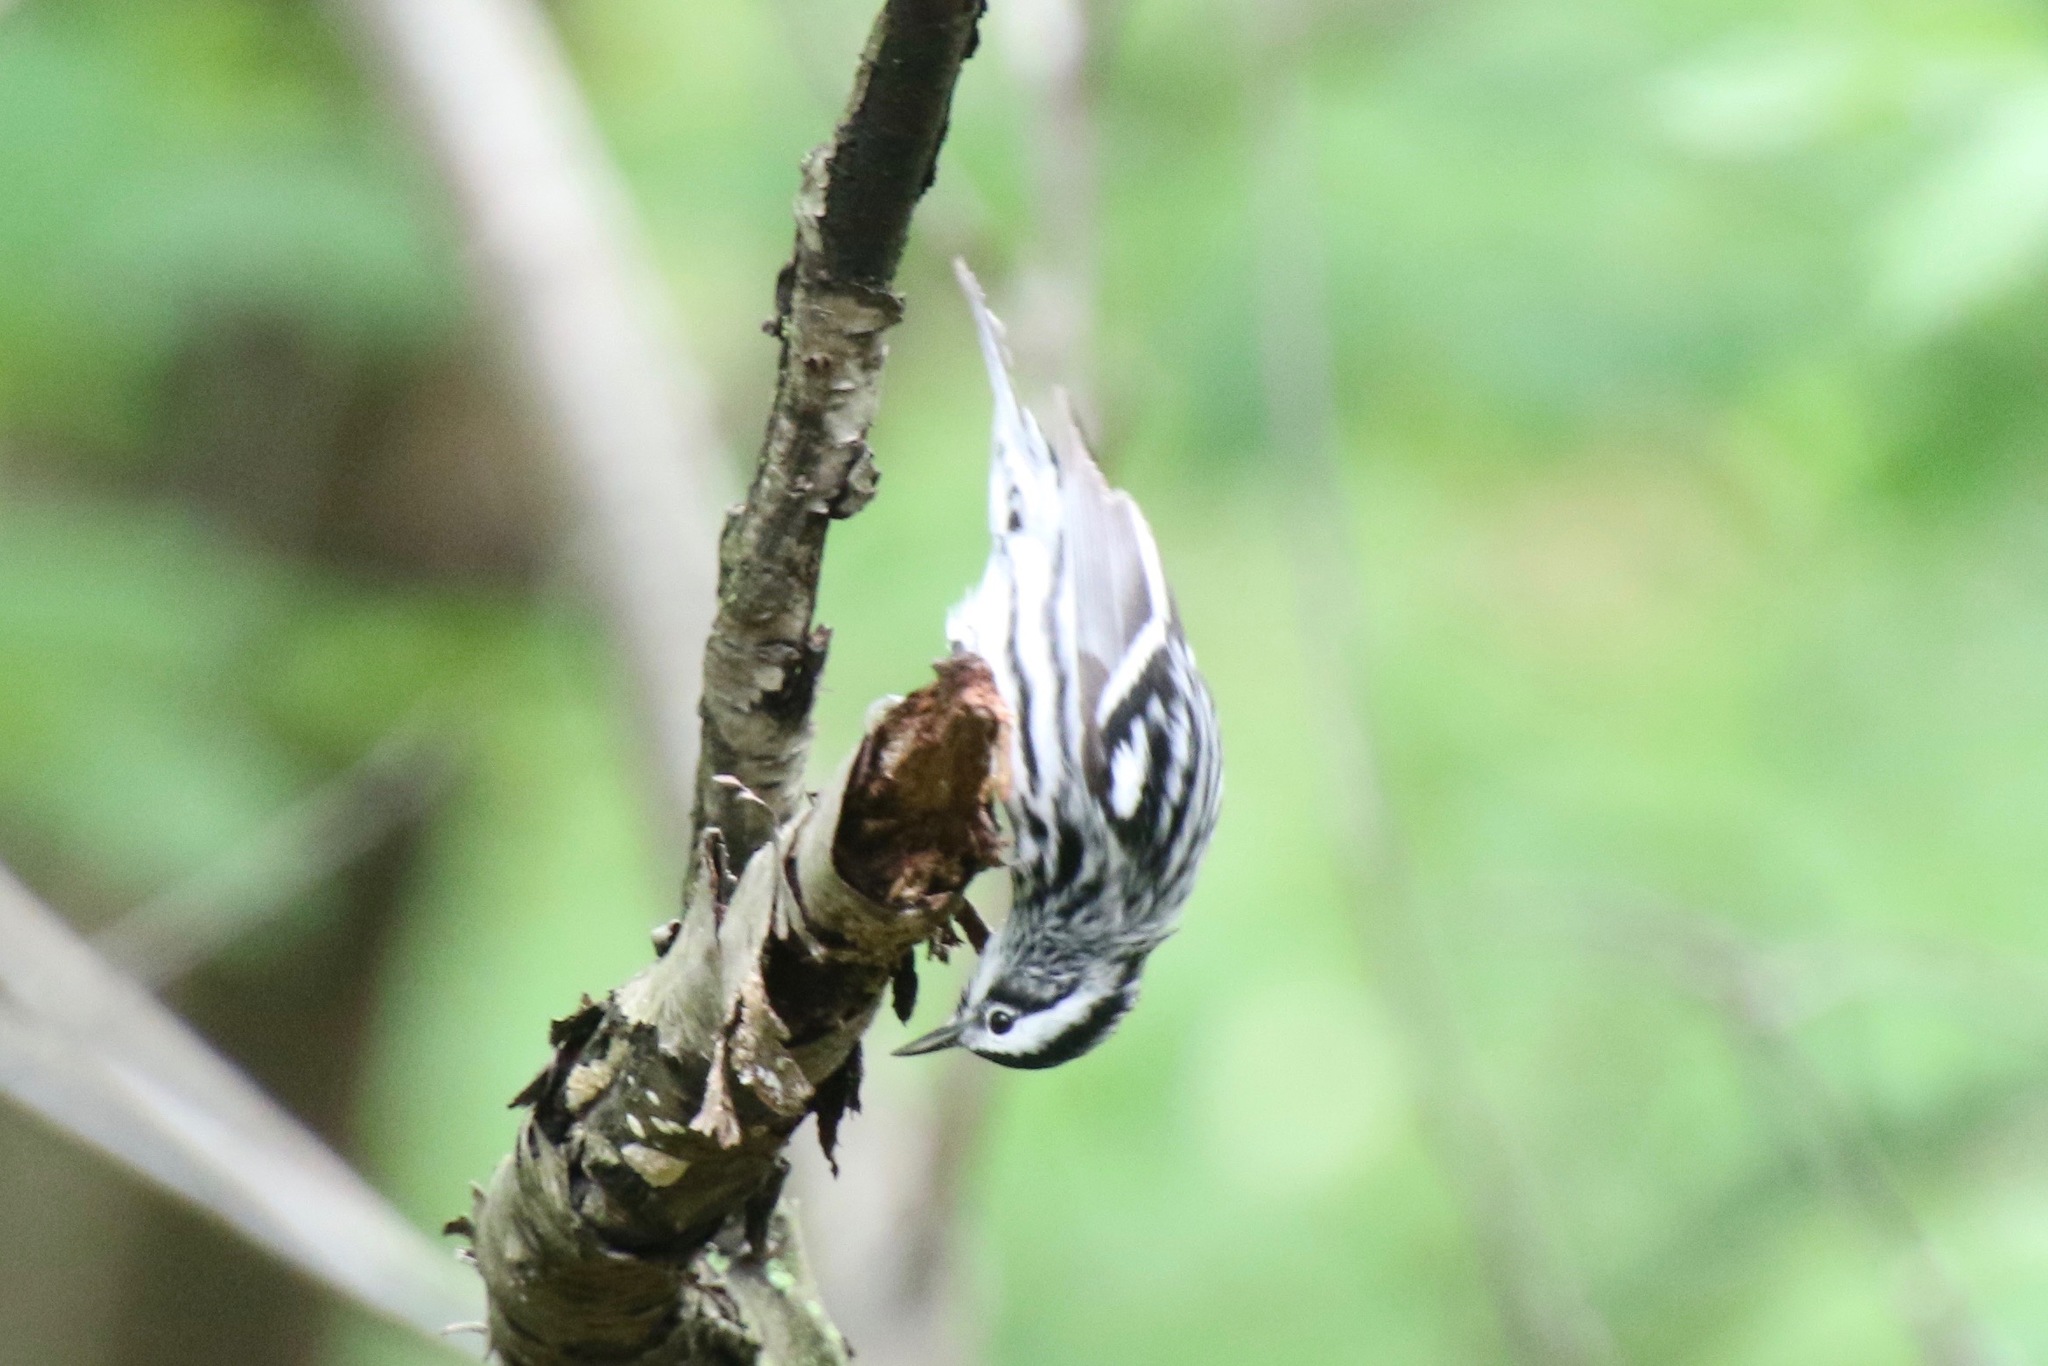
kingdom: Animalia
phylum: Chordata
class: Aves
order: Passeriformes
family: Parulidae
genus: Mniotilta
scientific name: Mniotilta varia
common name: Black-and-white warbler
